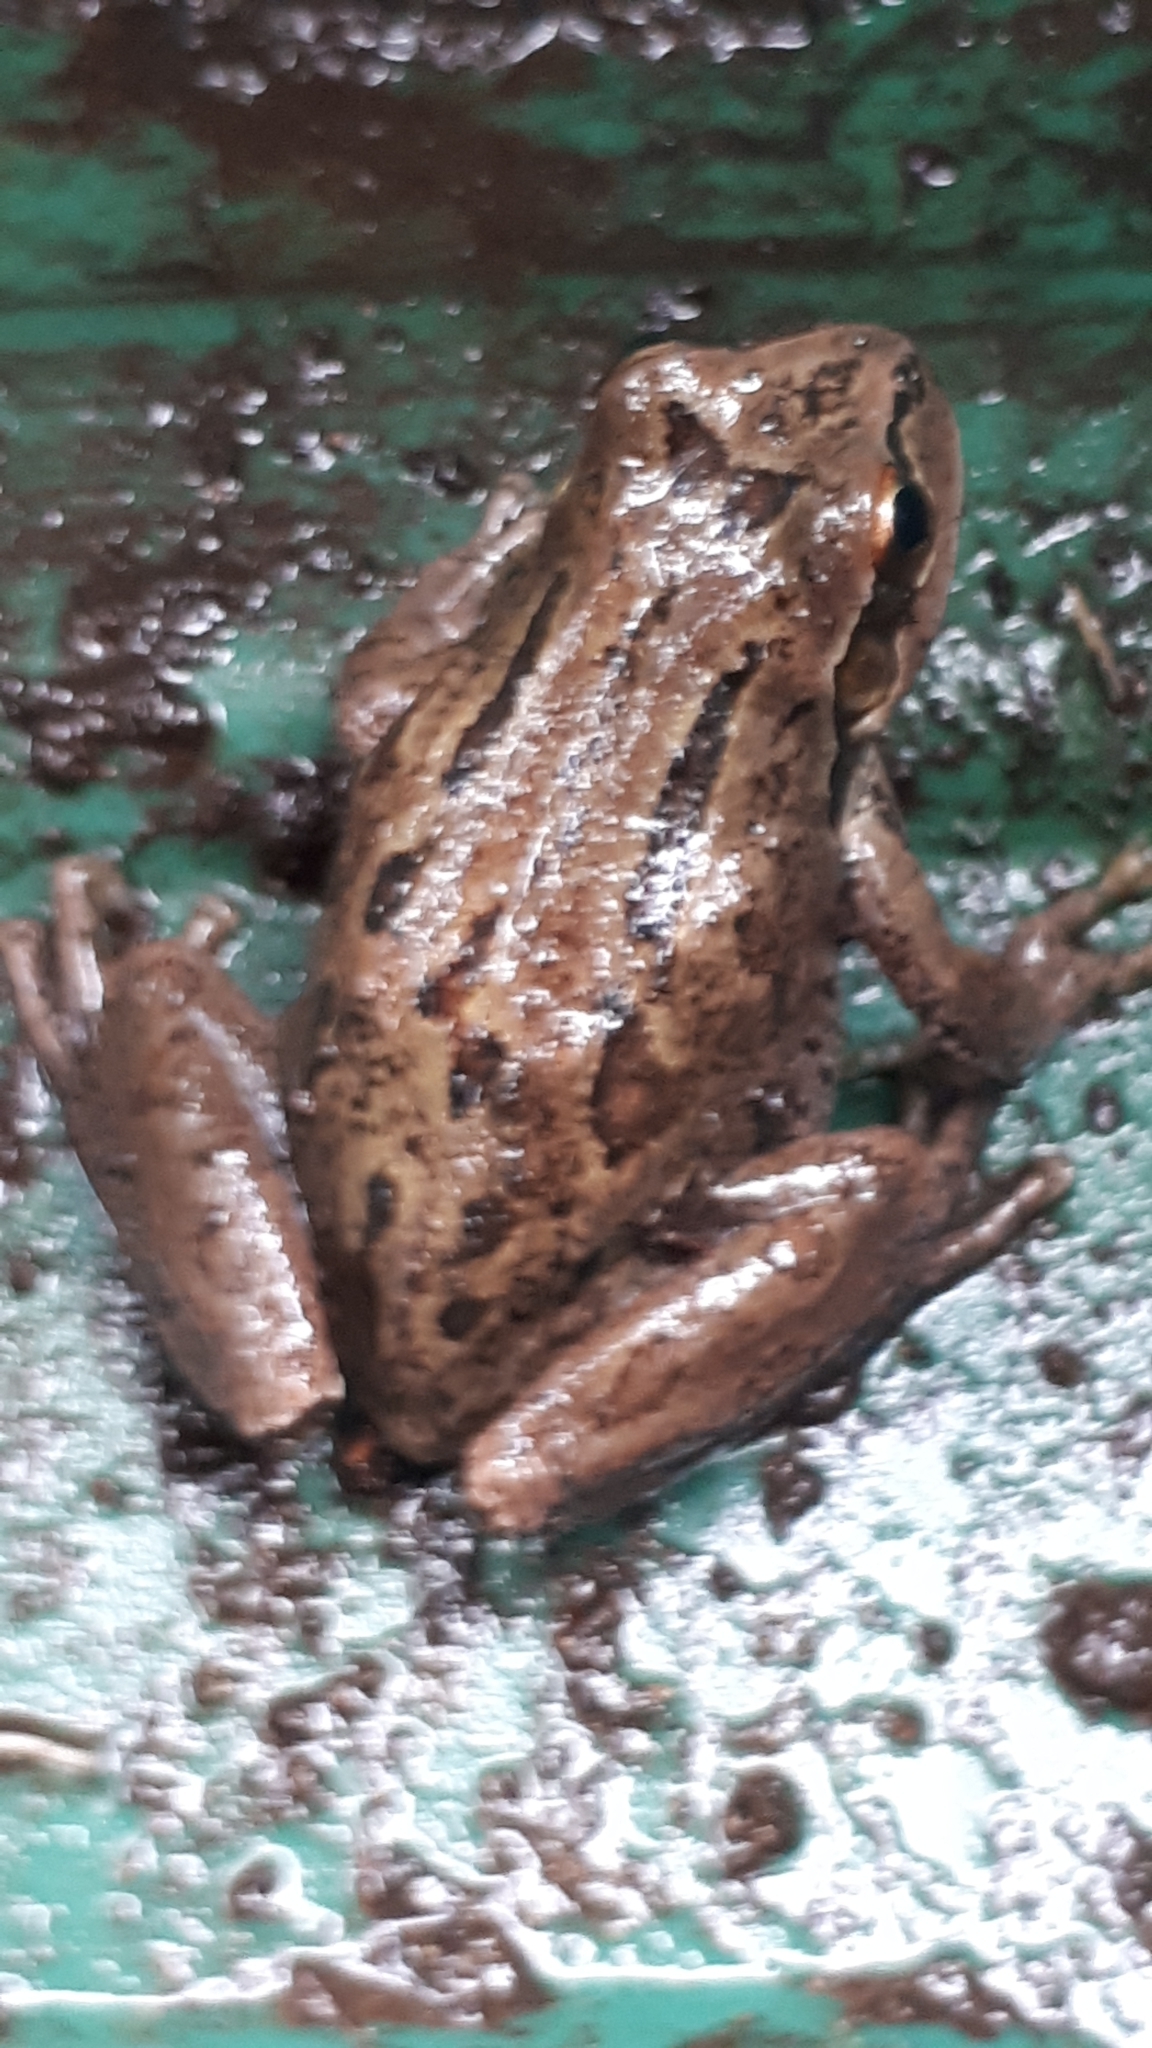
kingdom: Animalia
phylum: Chordata
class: Amphibia
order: Anura
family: Hylidae
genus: Pseudacris
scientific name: Pseudacris regilla
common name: Pacific chorus frog
